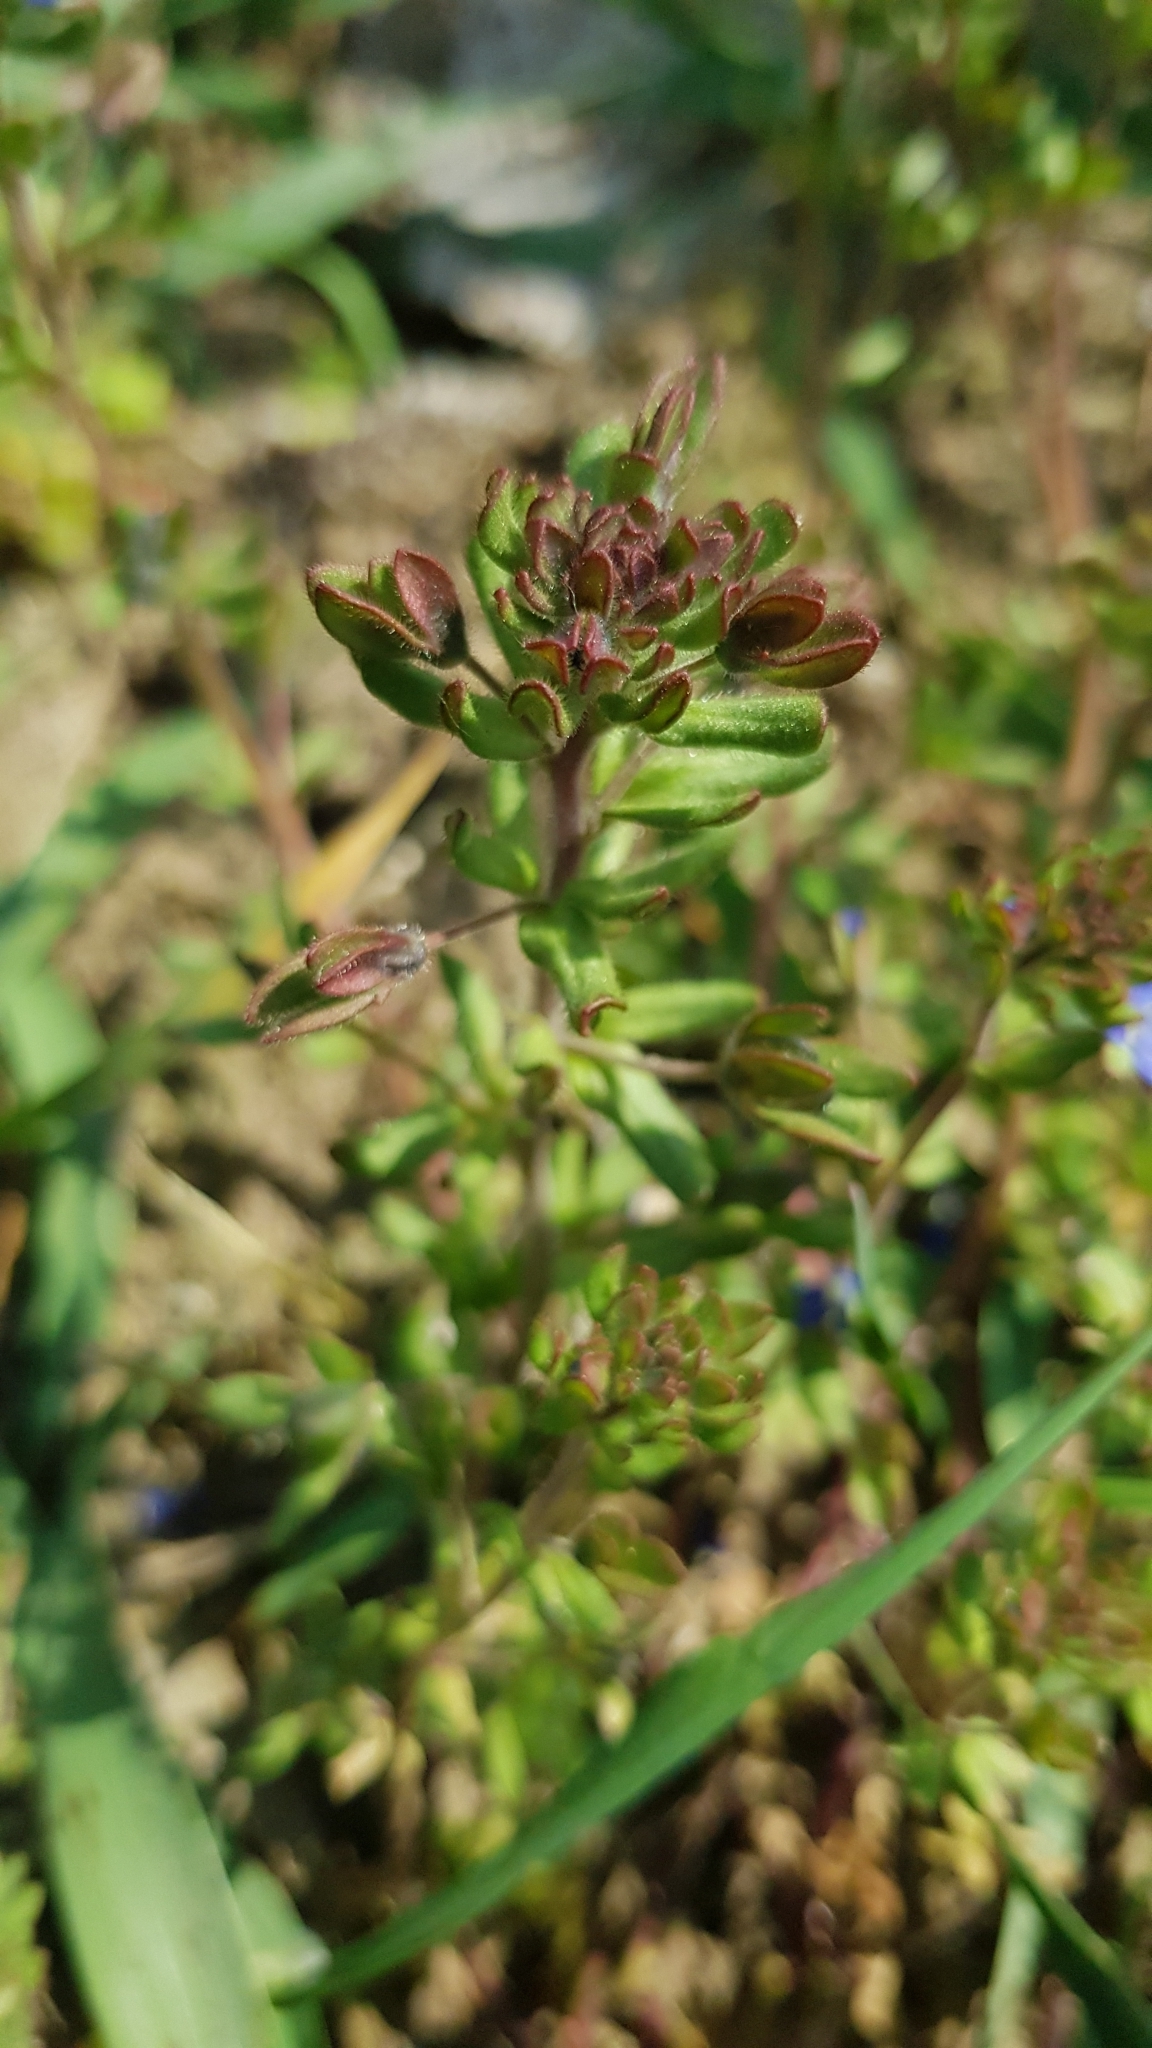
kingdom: Plantae
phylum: Tracheophyta
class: Magnoliopsida
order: Lamiales
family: Plantaginaceae
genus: Veronica
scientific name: Veronica triphyllos
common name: Fingered speedwell
